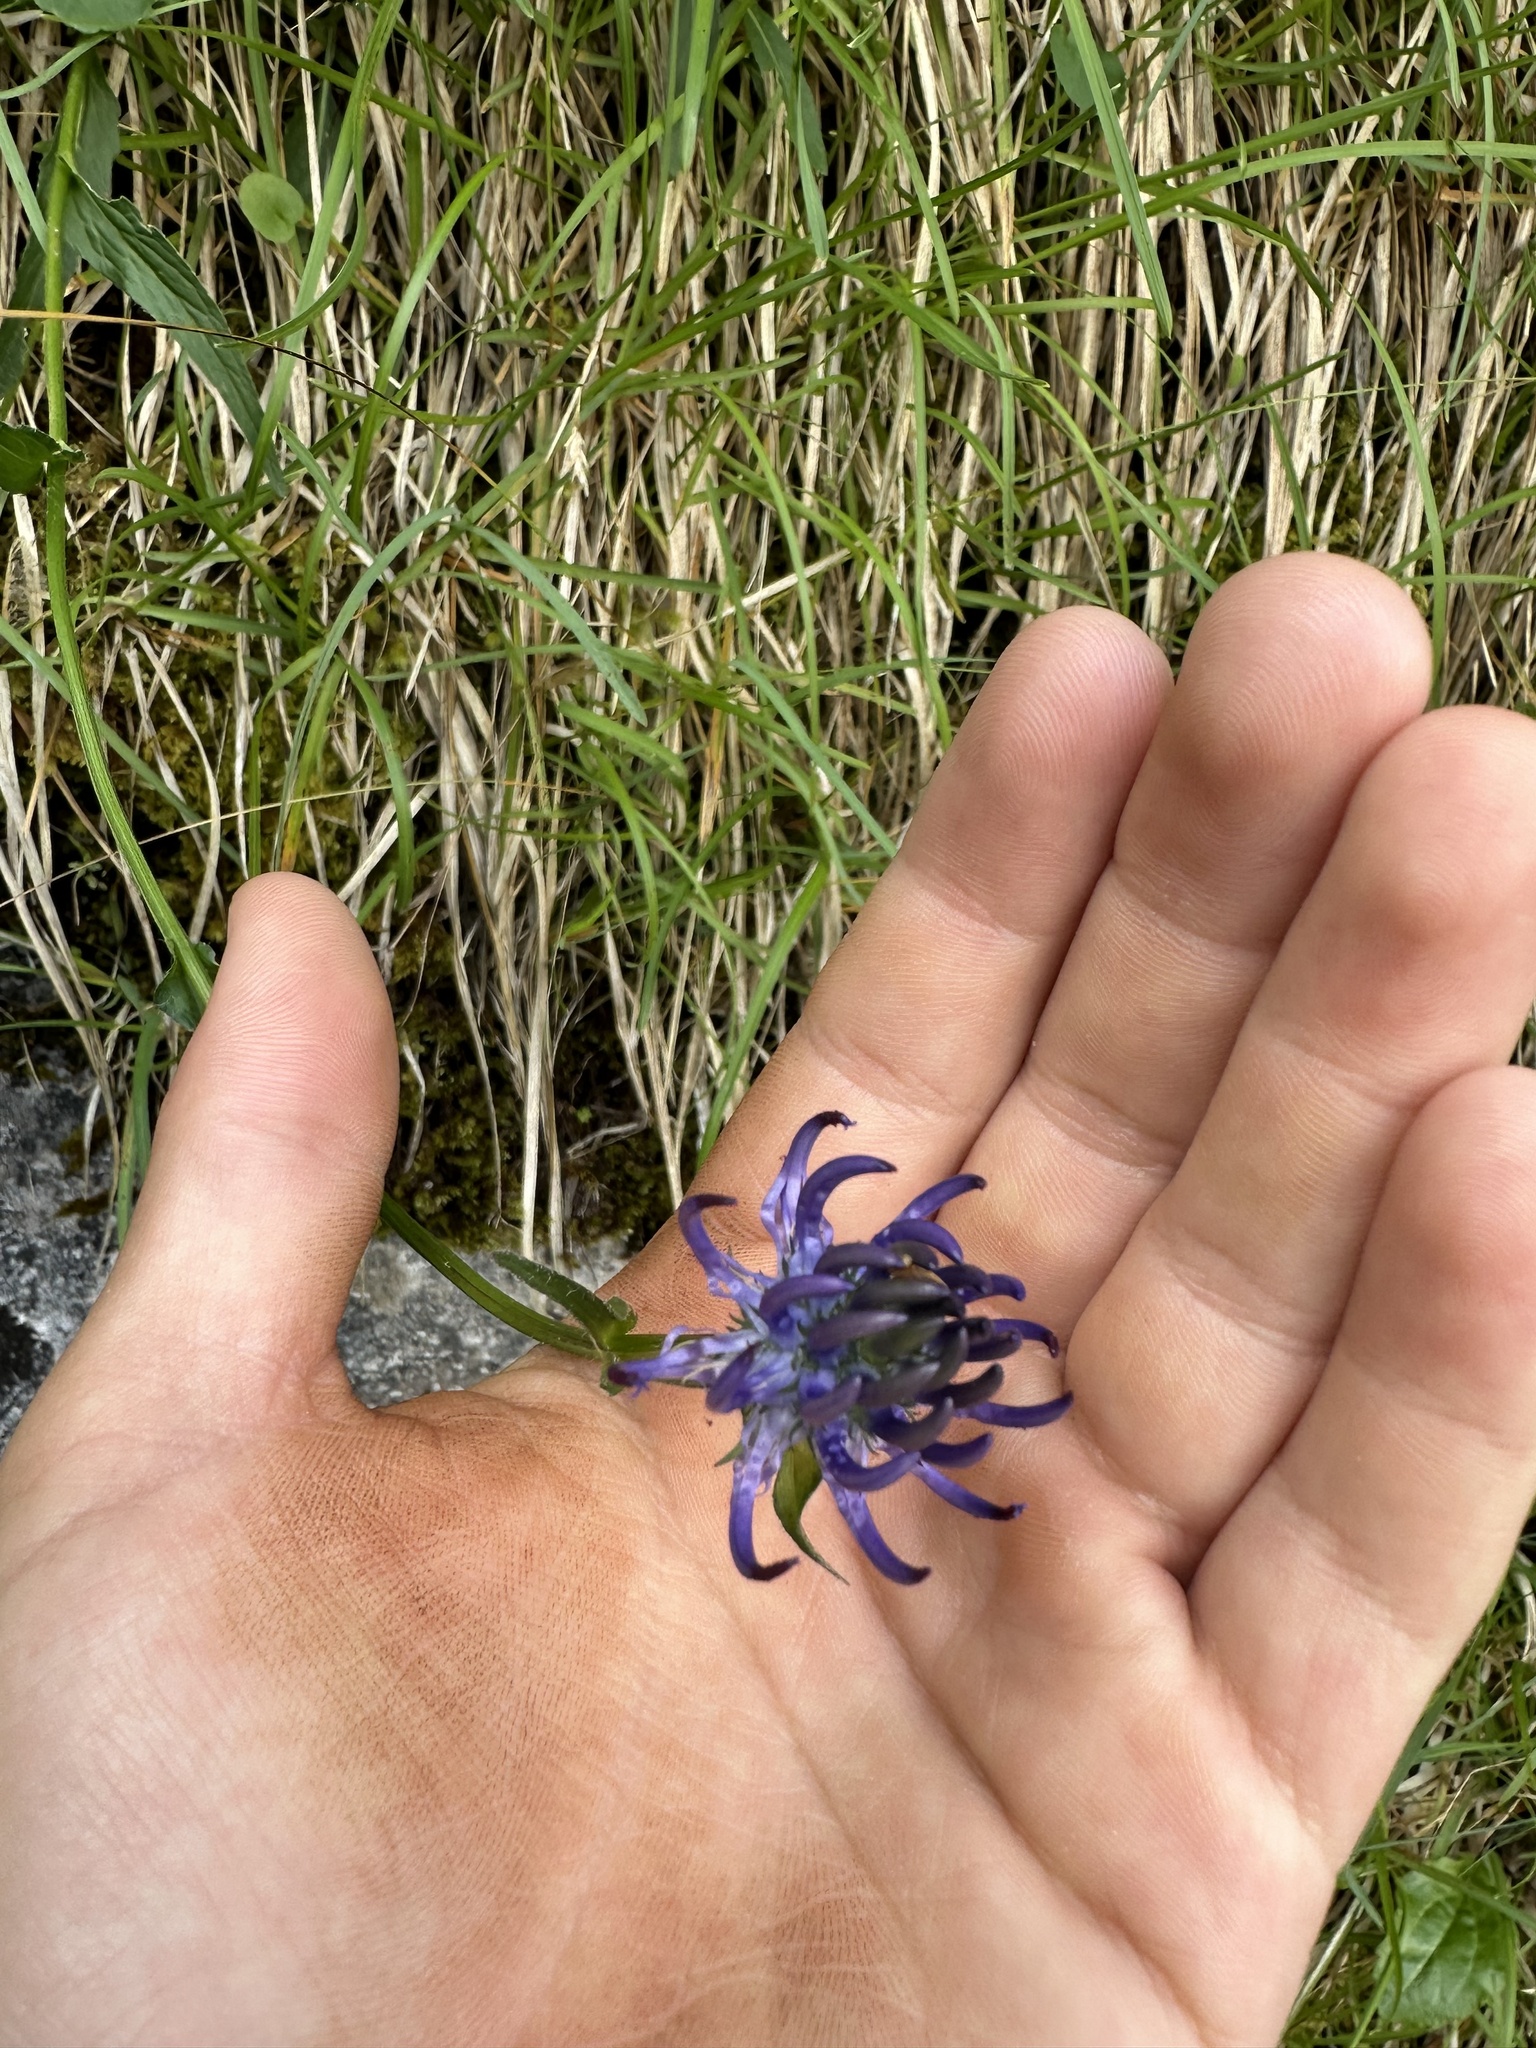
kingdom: Plantae
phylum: Tracheophyta
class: Magnoliopsida
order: Asterales
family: Campanulaceae
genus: Phyteuma
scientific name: Phyteuma orbiculare
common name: Round-headed rampion
